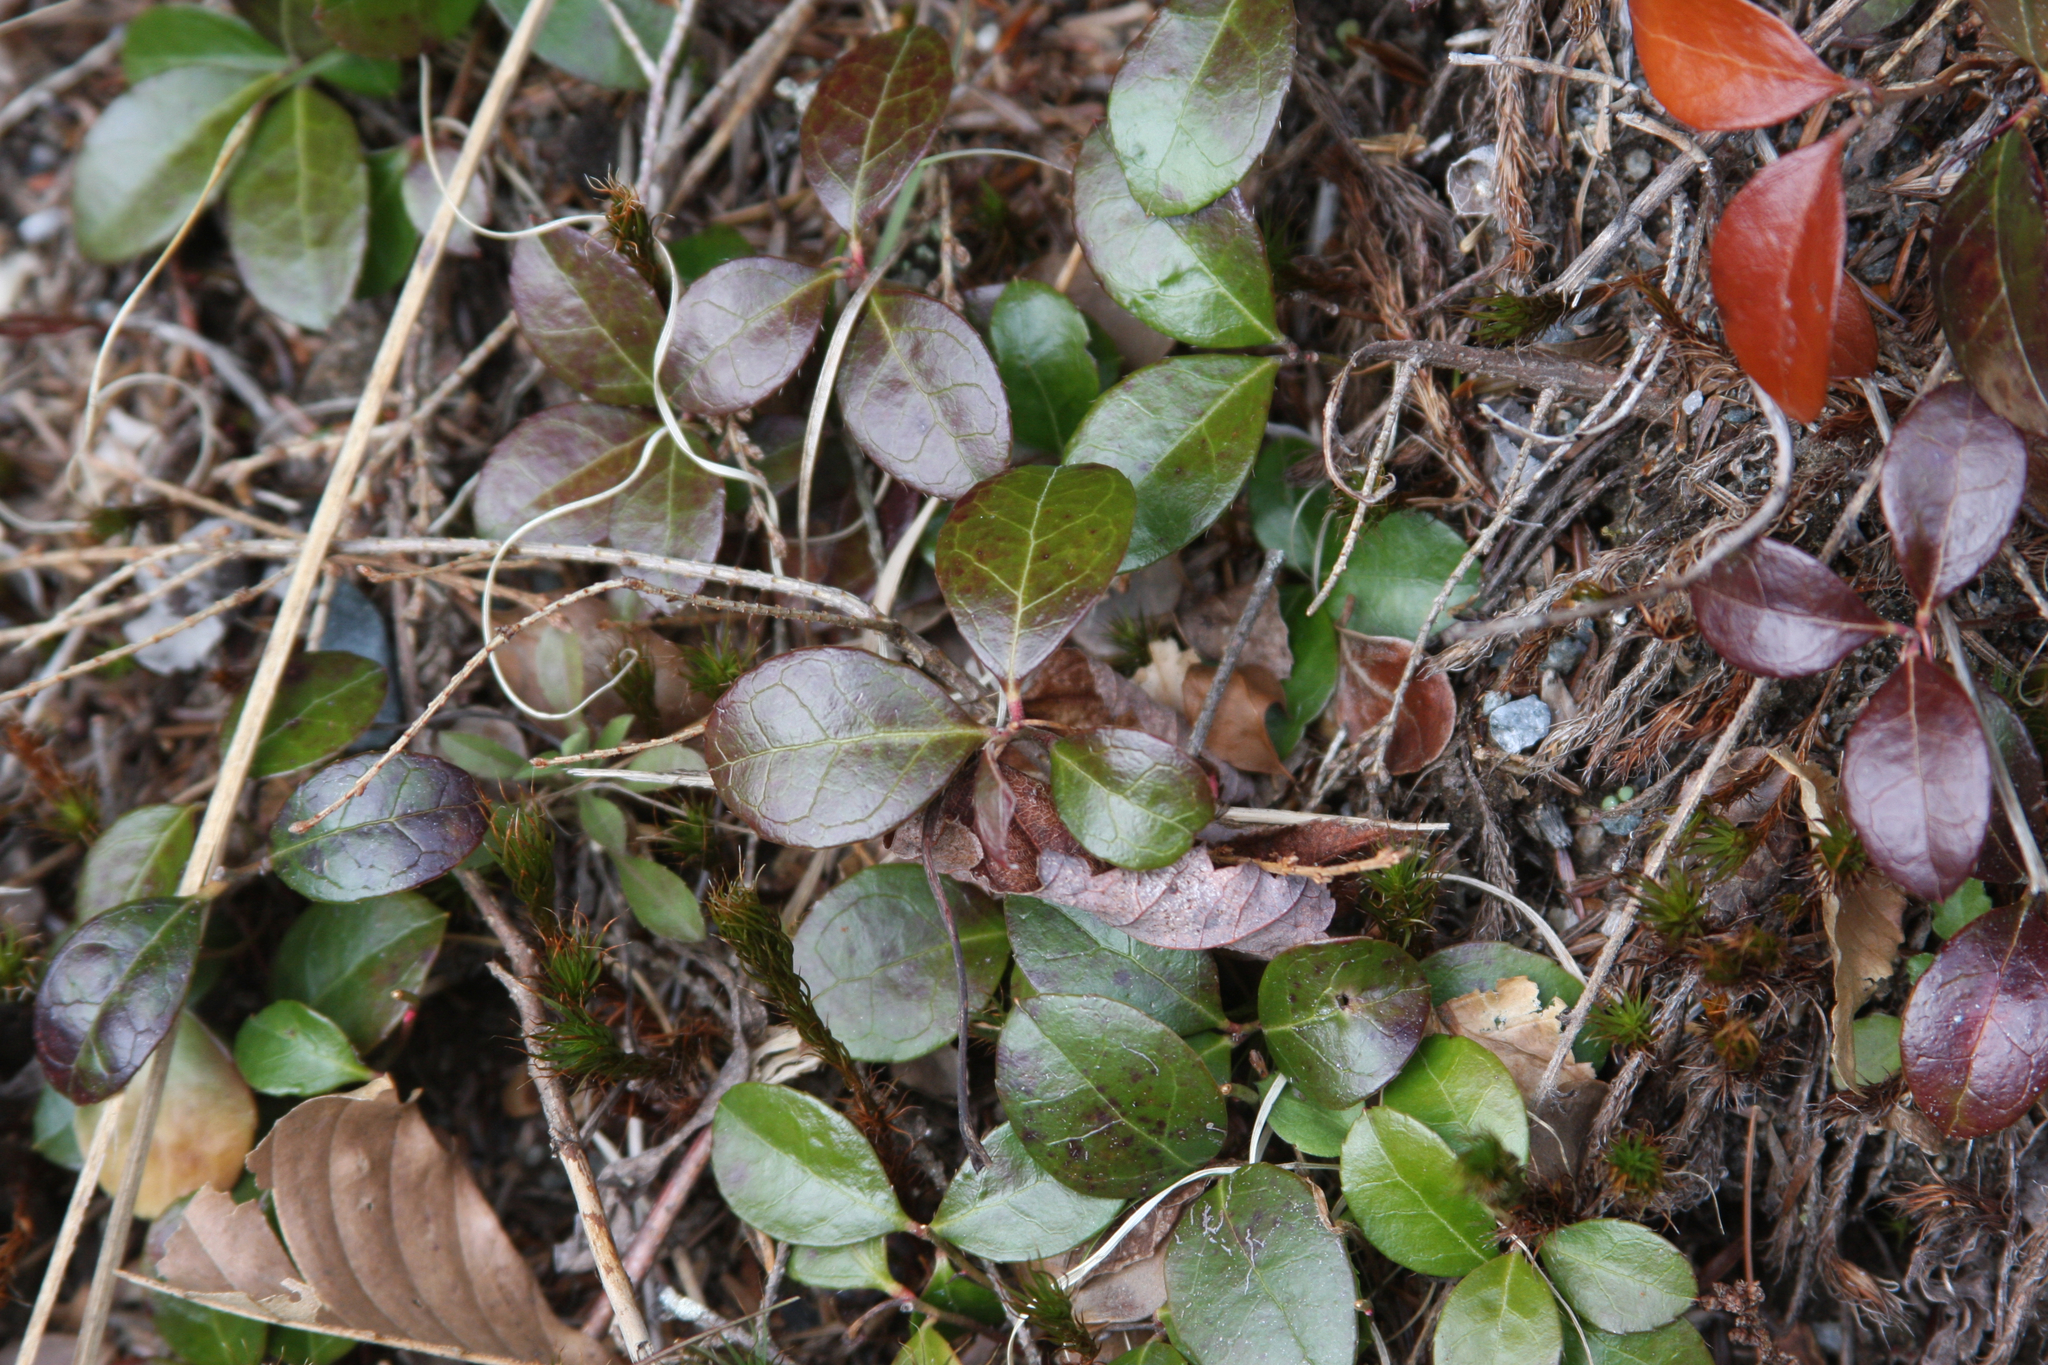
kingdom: Plantae
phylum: Tracheophyta
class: Magnoliopsida
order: Ericales
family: Ericaceae
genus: Gaultheria
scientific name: Gaultheria procumbens
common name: Checkerberry
